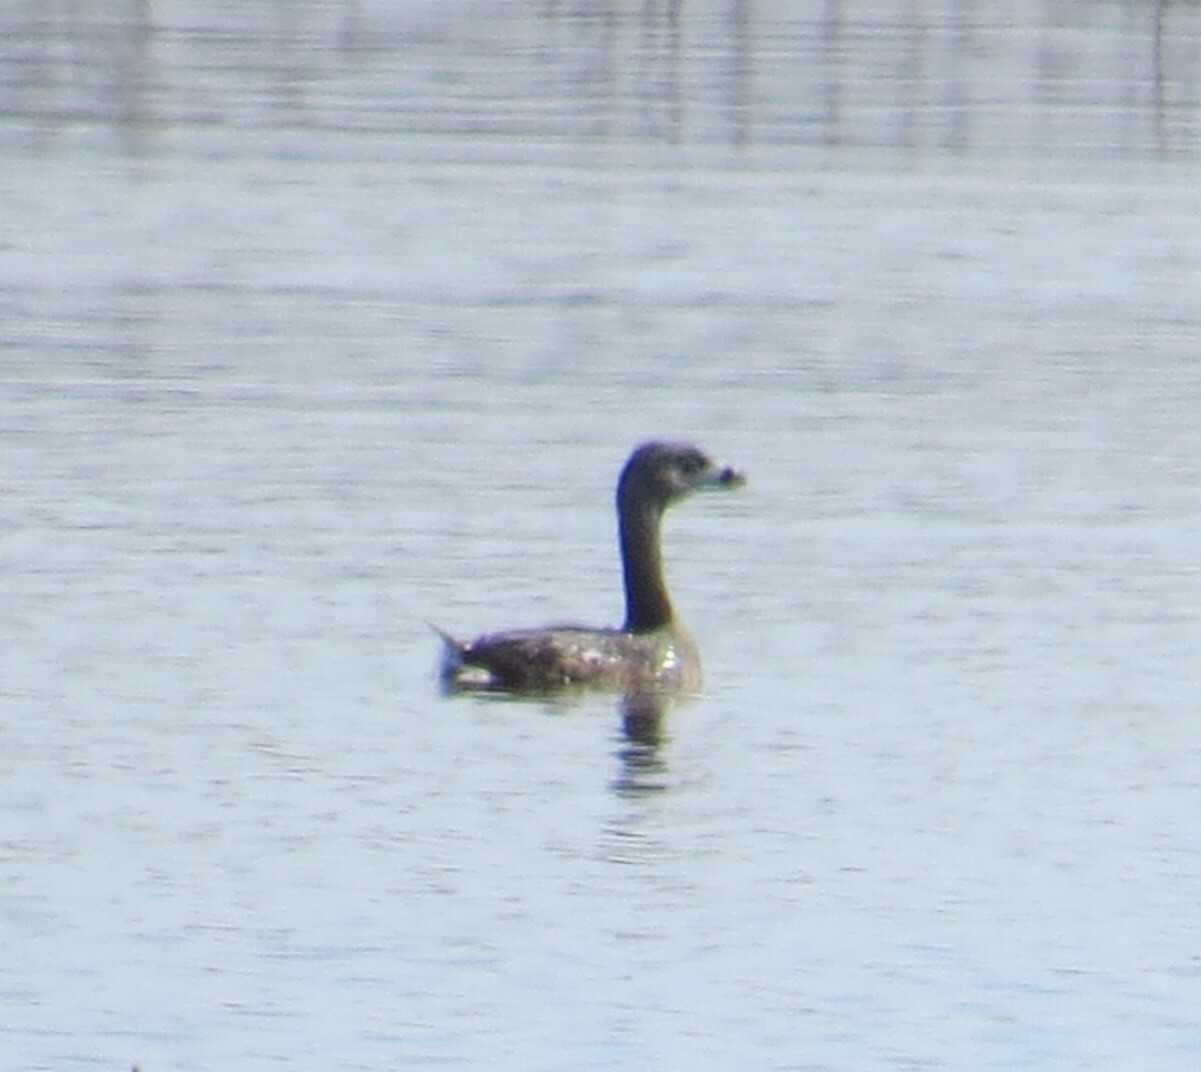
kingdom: Animalia
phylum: Chordata
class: Aves
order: Podicipediformes
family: Podicipedidae
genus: Podilymbus
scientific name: Podilymbus podiceps
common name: Pied-billed grebe
